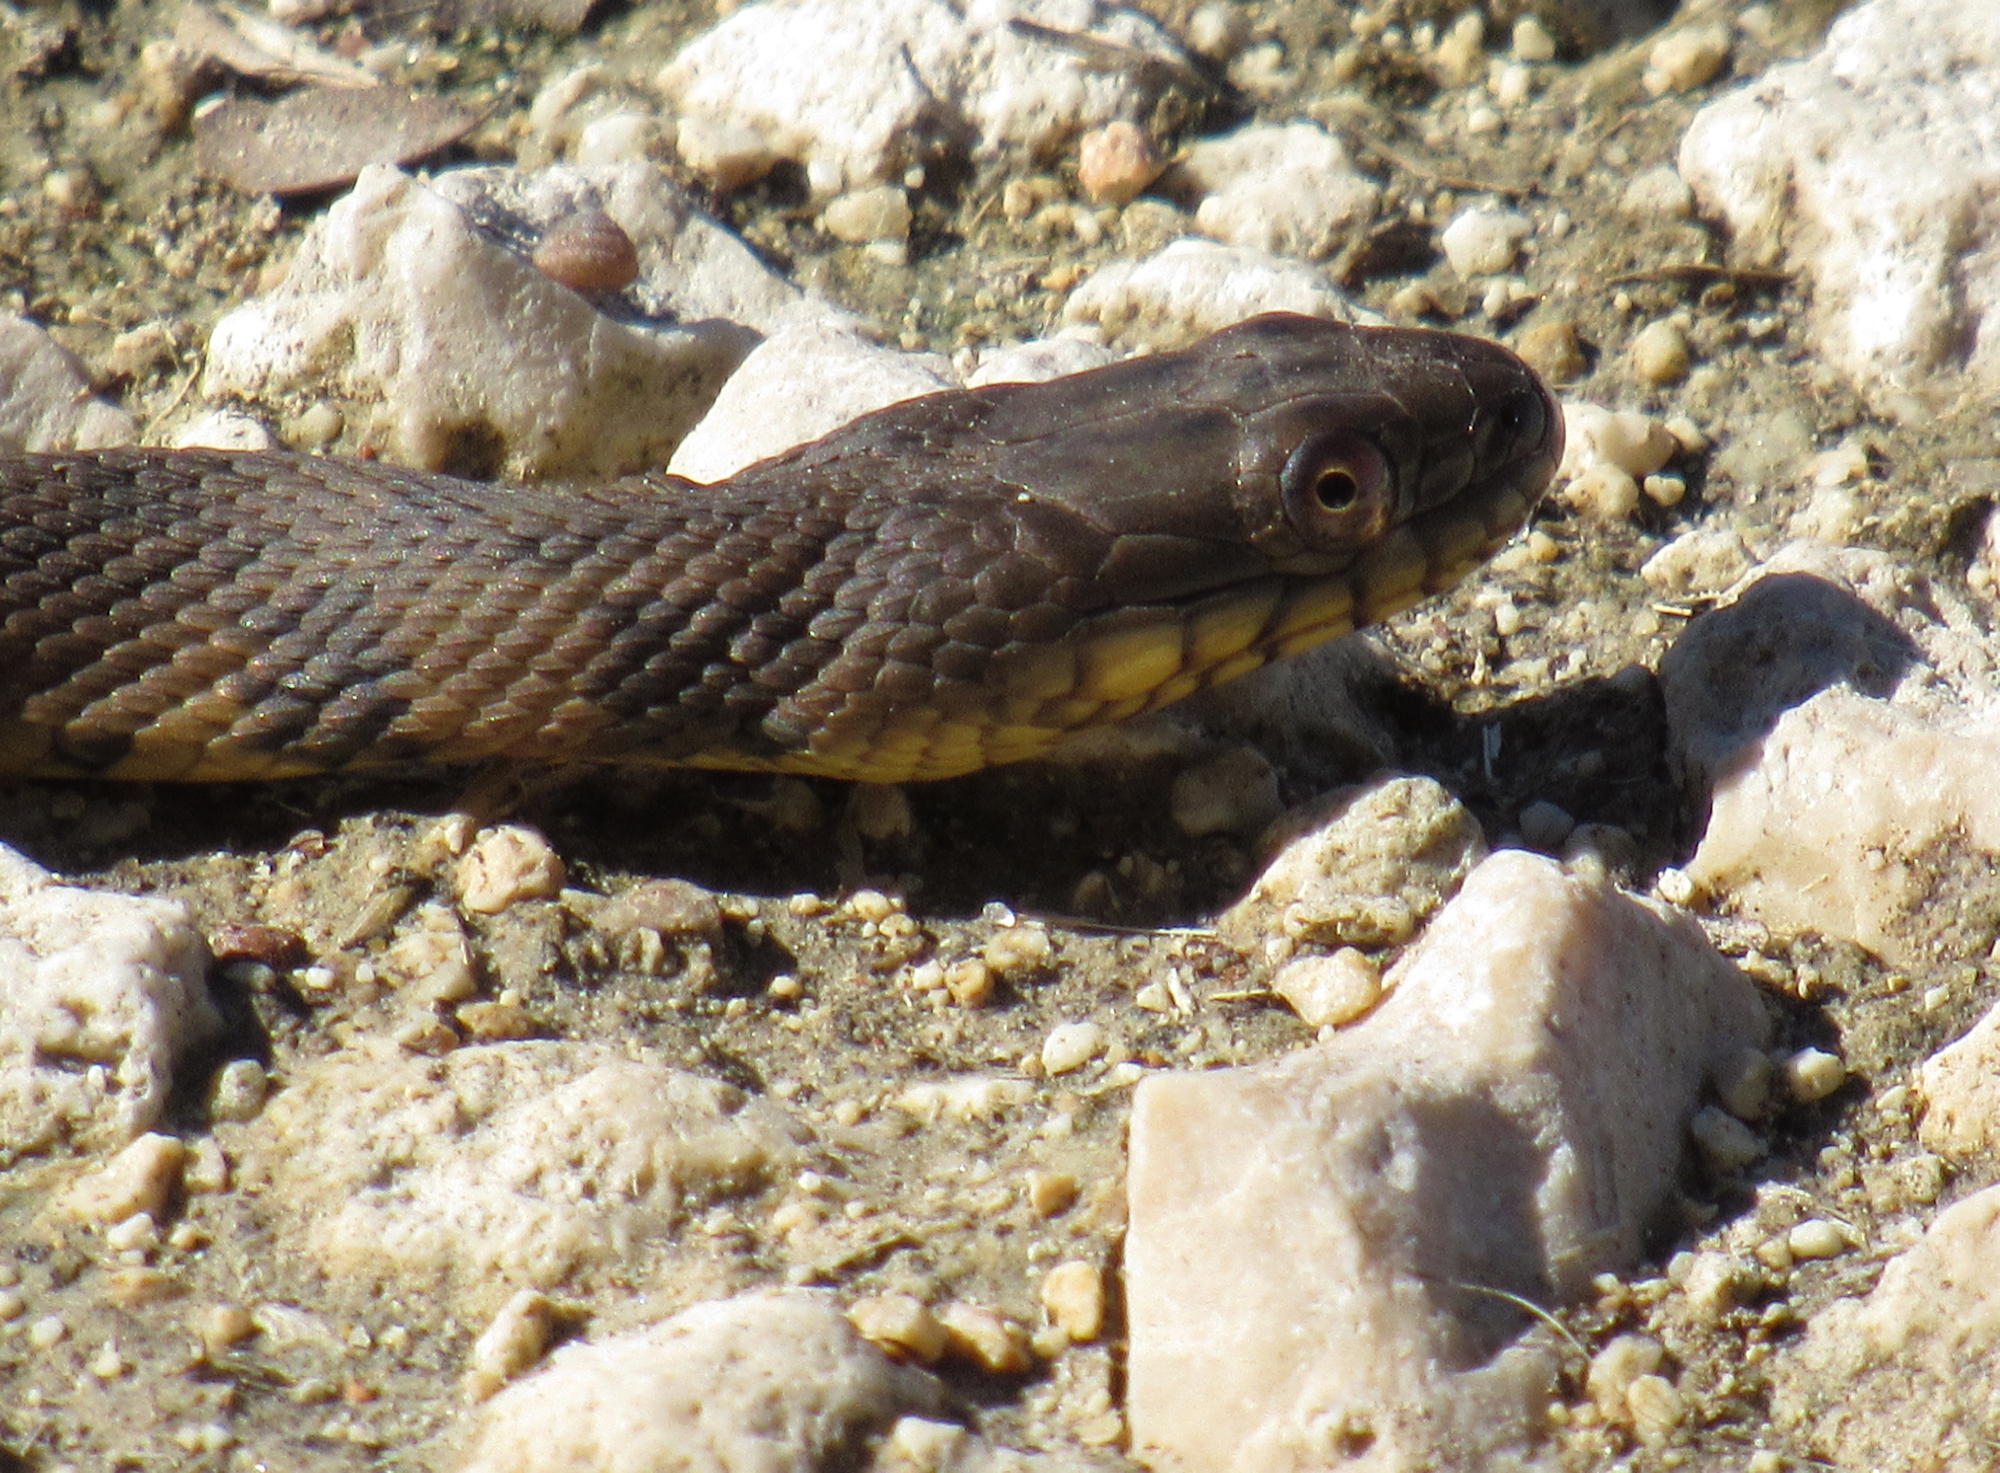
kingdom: Animalia
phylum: Chordata
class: Squamata
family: Colubridae
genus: Nerodia
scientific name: Nerodia rhombifer
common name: Diamondback water snake
